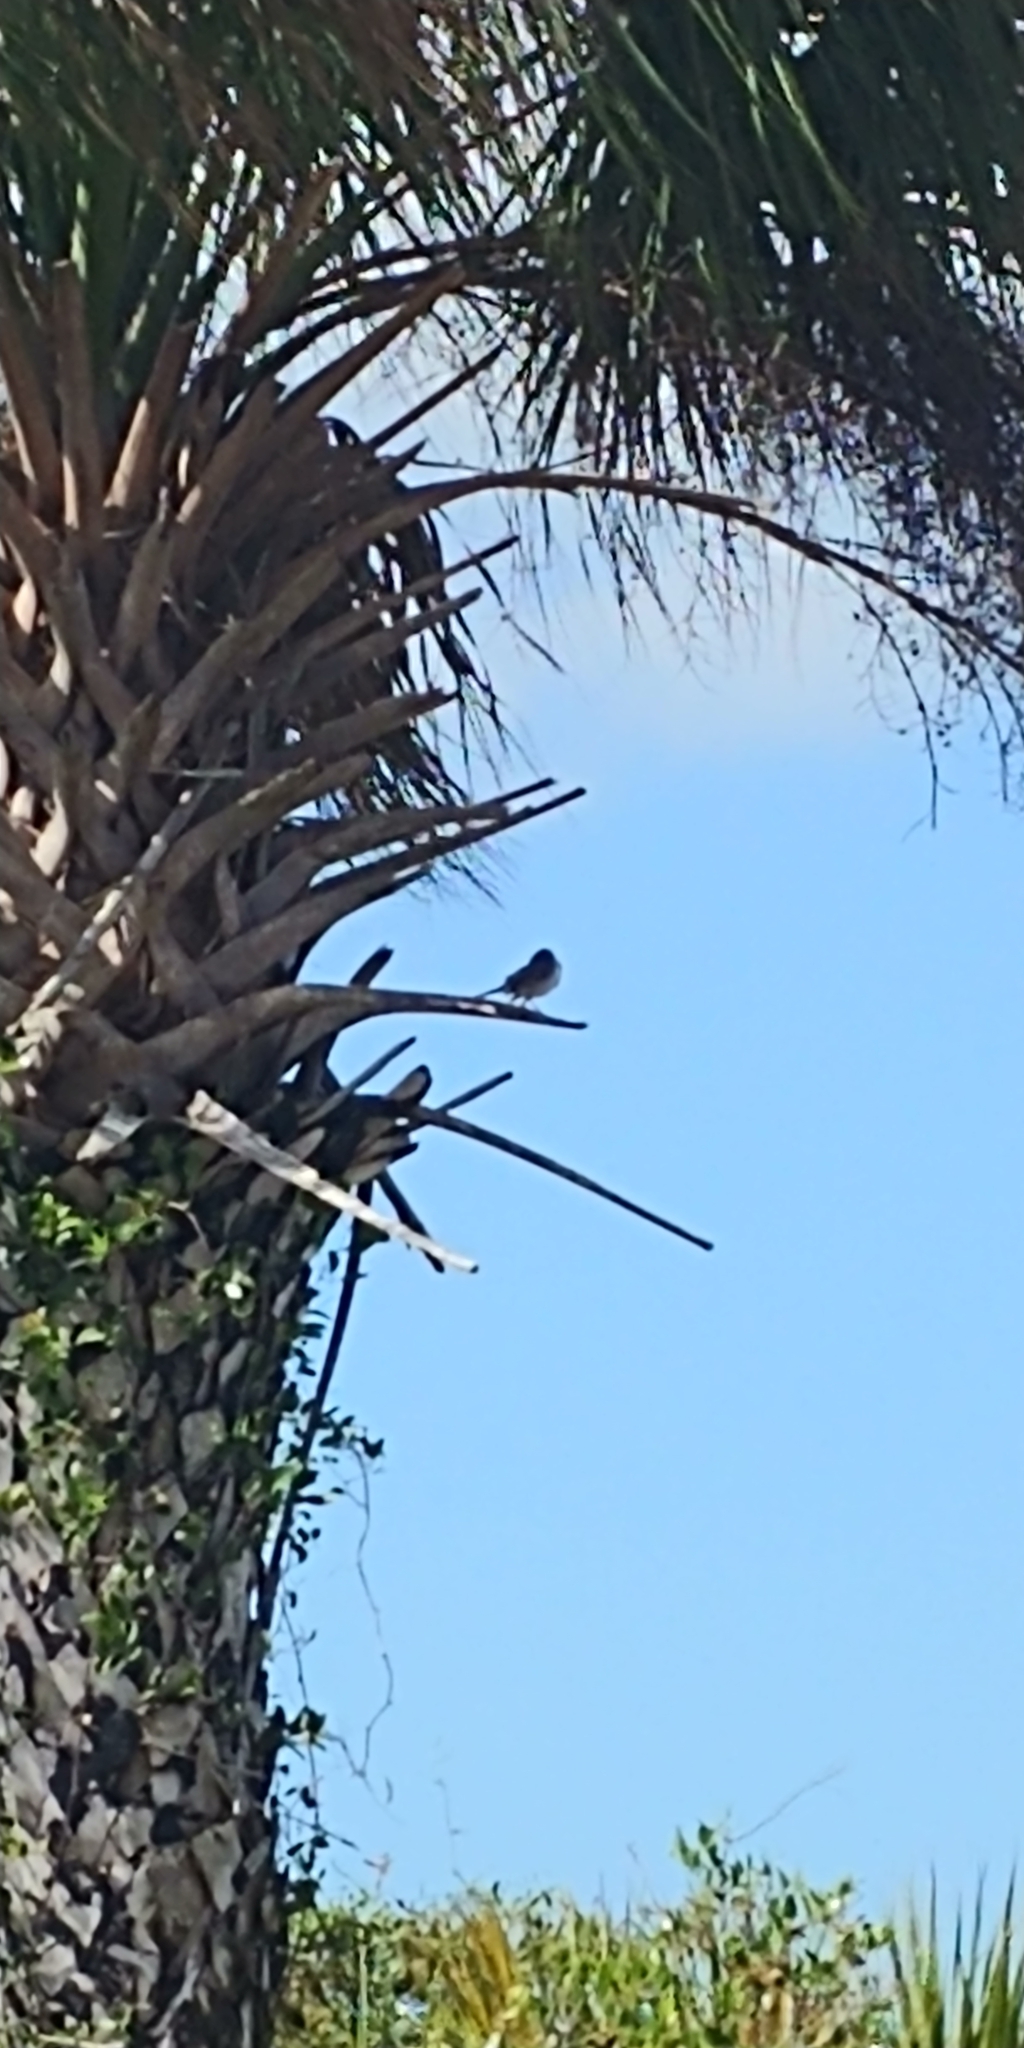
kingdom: Animalia
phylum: Chordata
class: Aves
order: Passeriformes
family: Mimidae
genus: Mimus
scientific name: Mimus polyglottos
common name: Northern mockingbird
